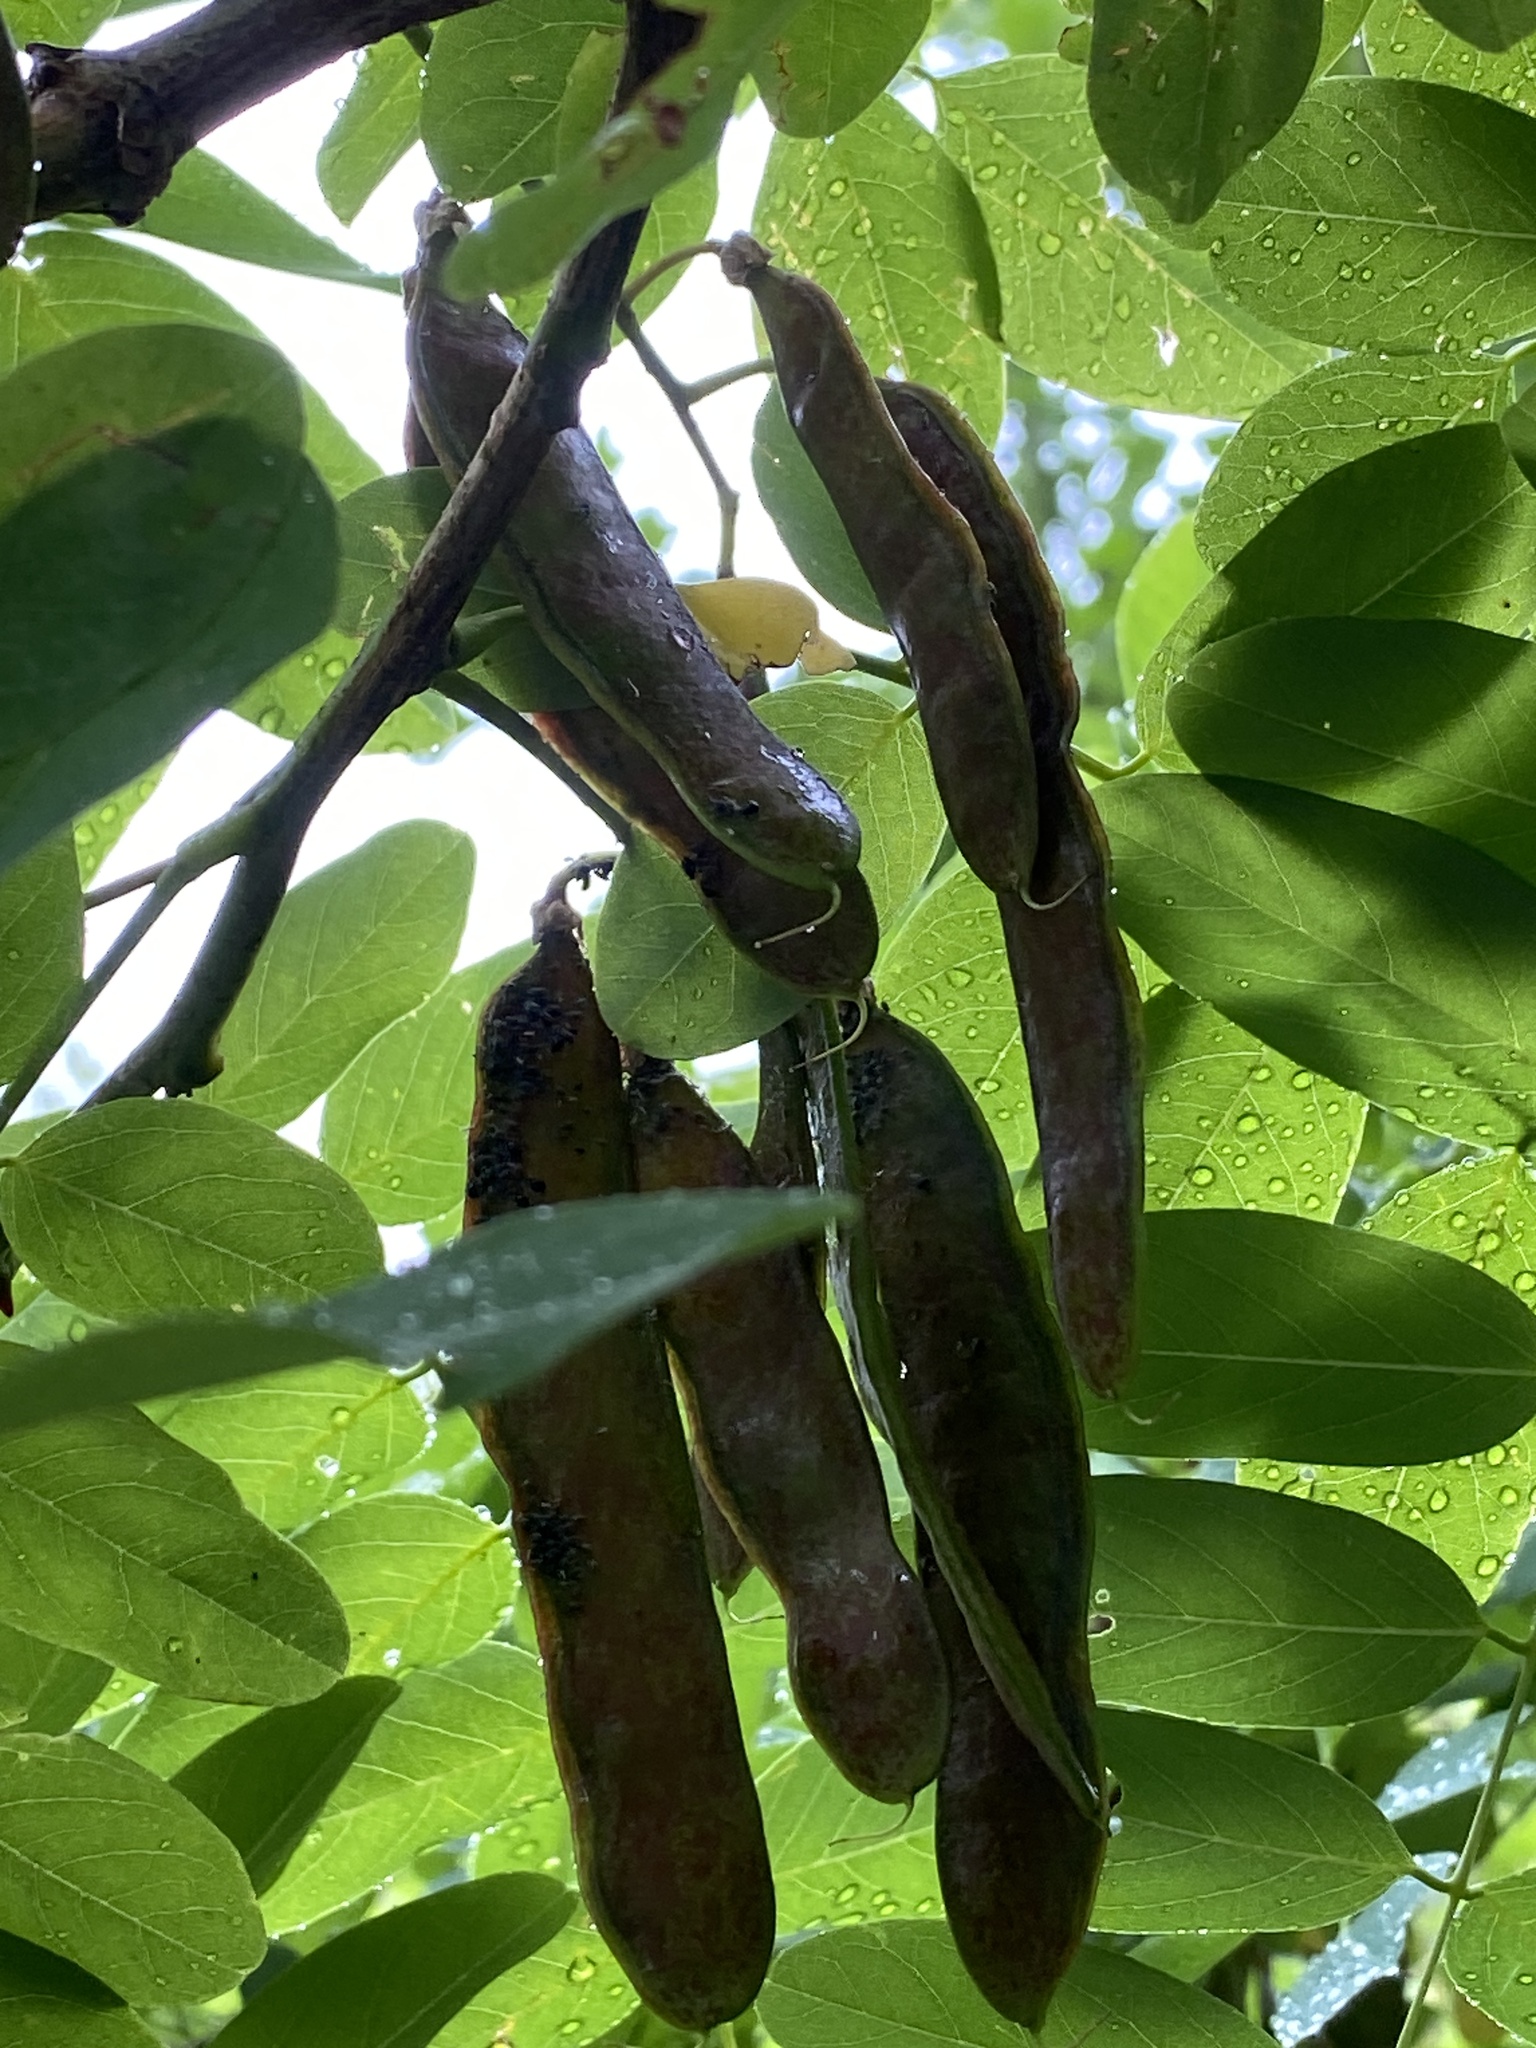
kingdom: Plantae
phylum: Tracheophyta
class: Magnoliopsida
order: Fabales
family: Fabaceae
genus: Robinia
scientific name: Robinia pseudoacacia
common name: Black locust
